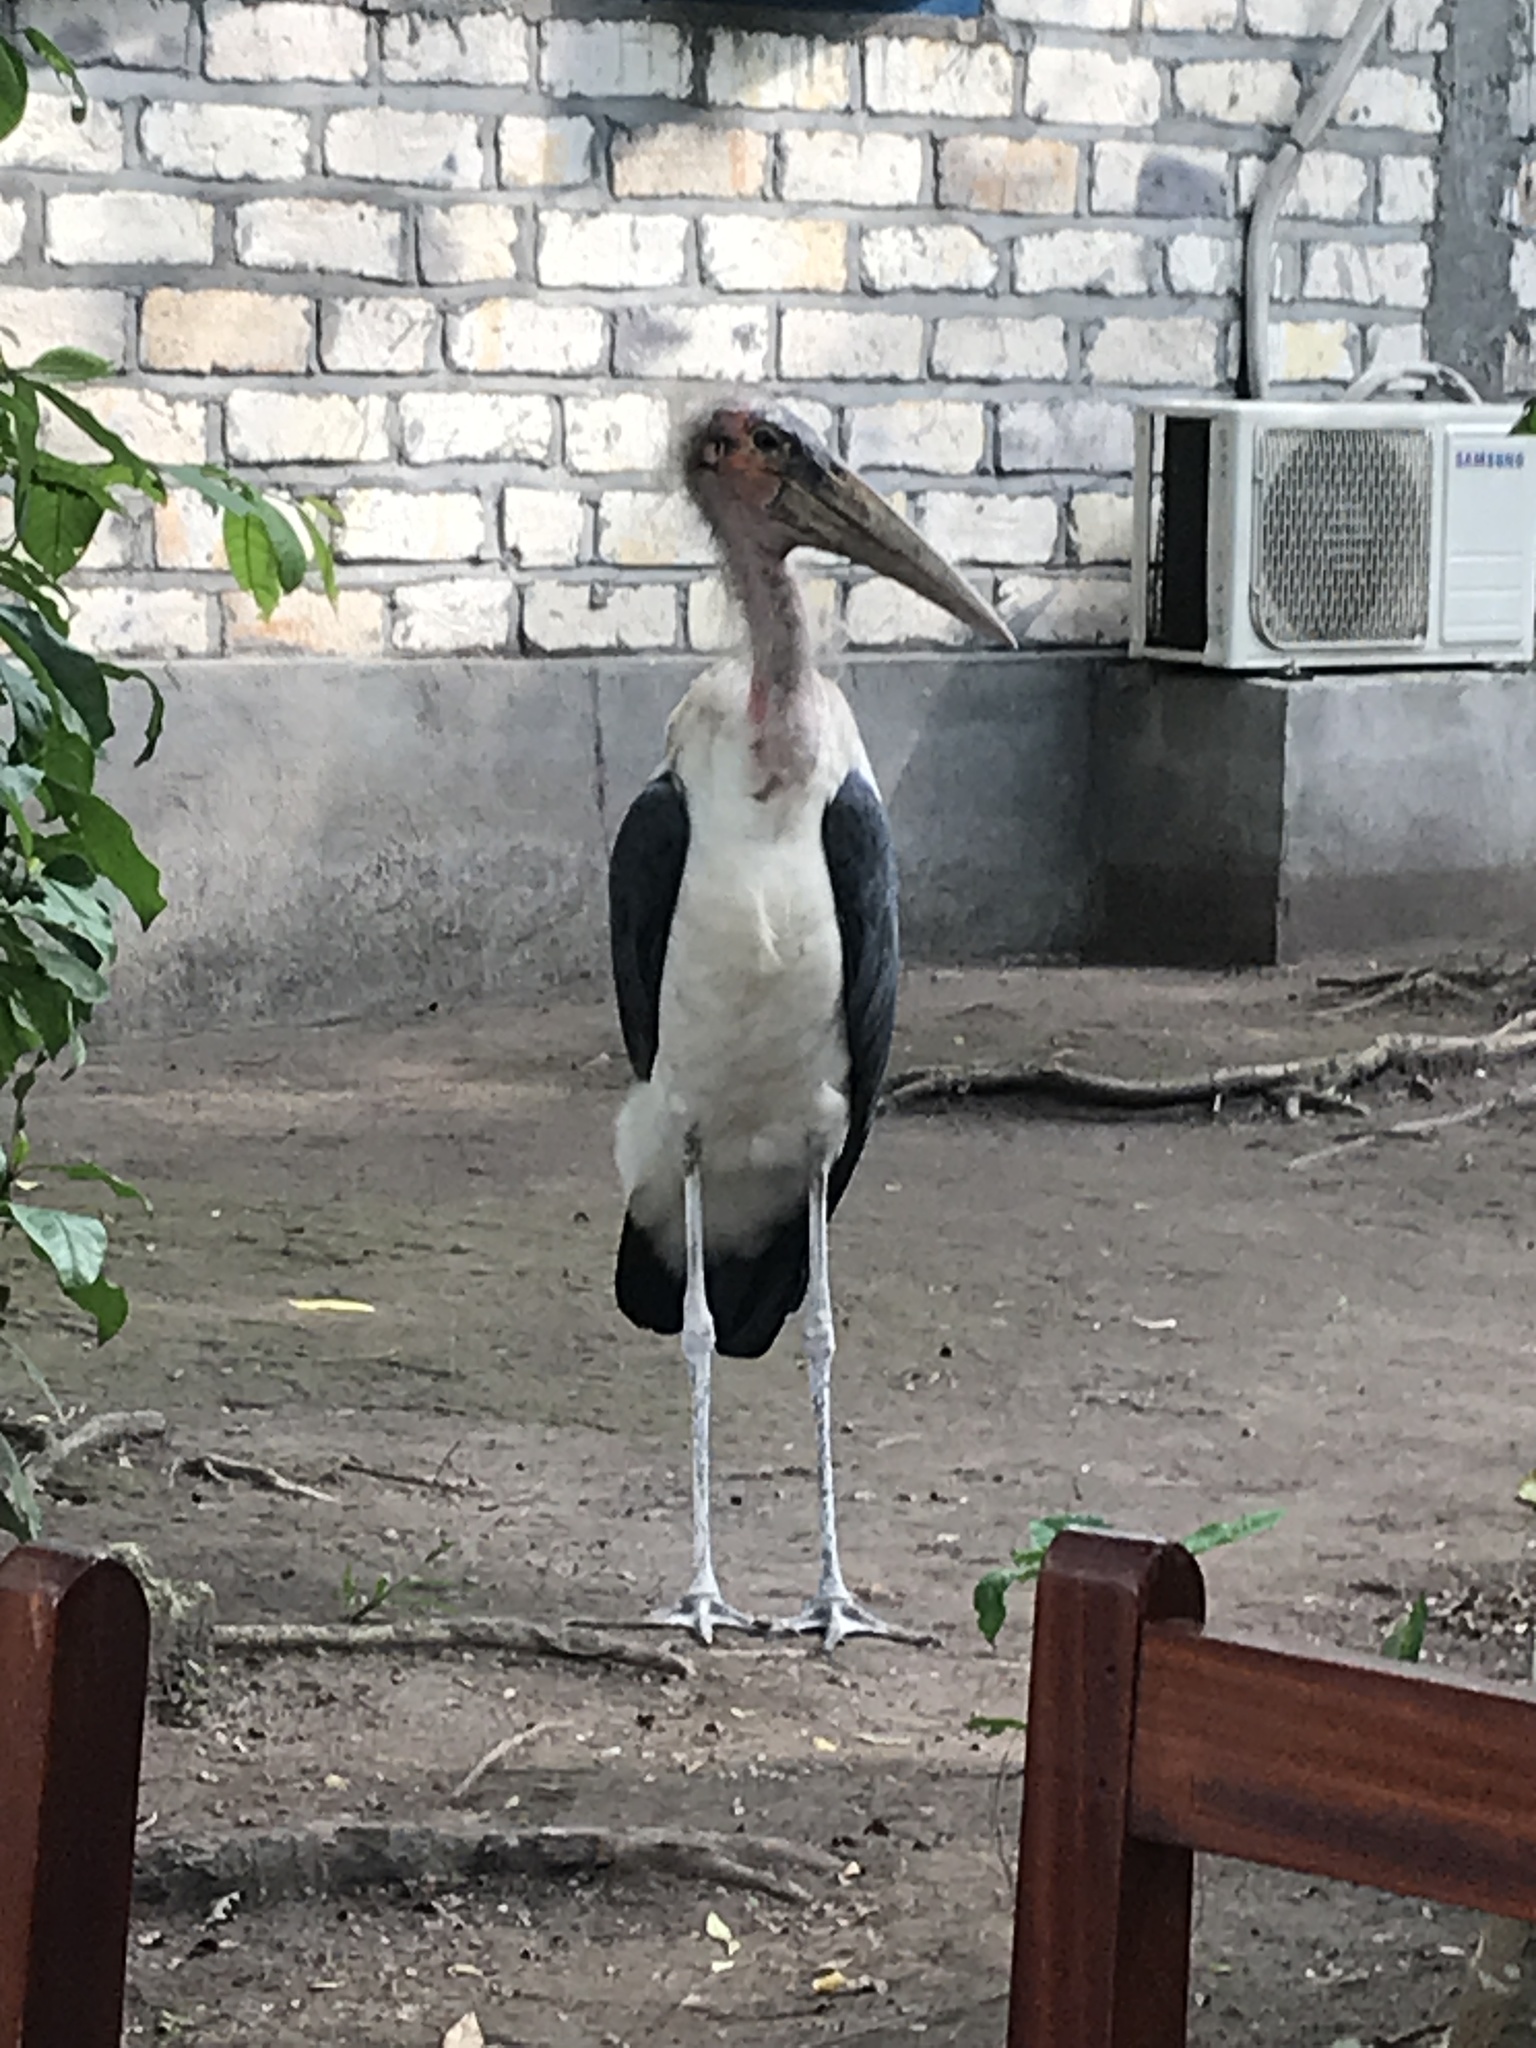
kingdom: Animalia
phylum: Chordata
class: Aves
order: Ciconiiformes
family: Ciconiidae
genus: Leptoptilos
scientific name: Leptoptilos crumenifer
